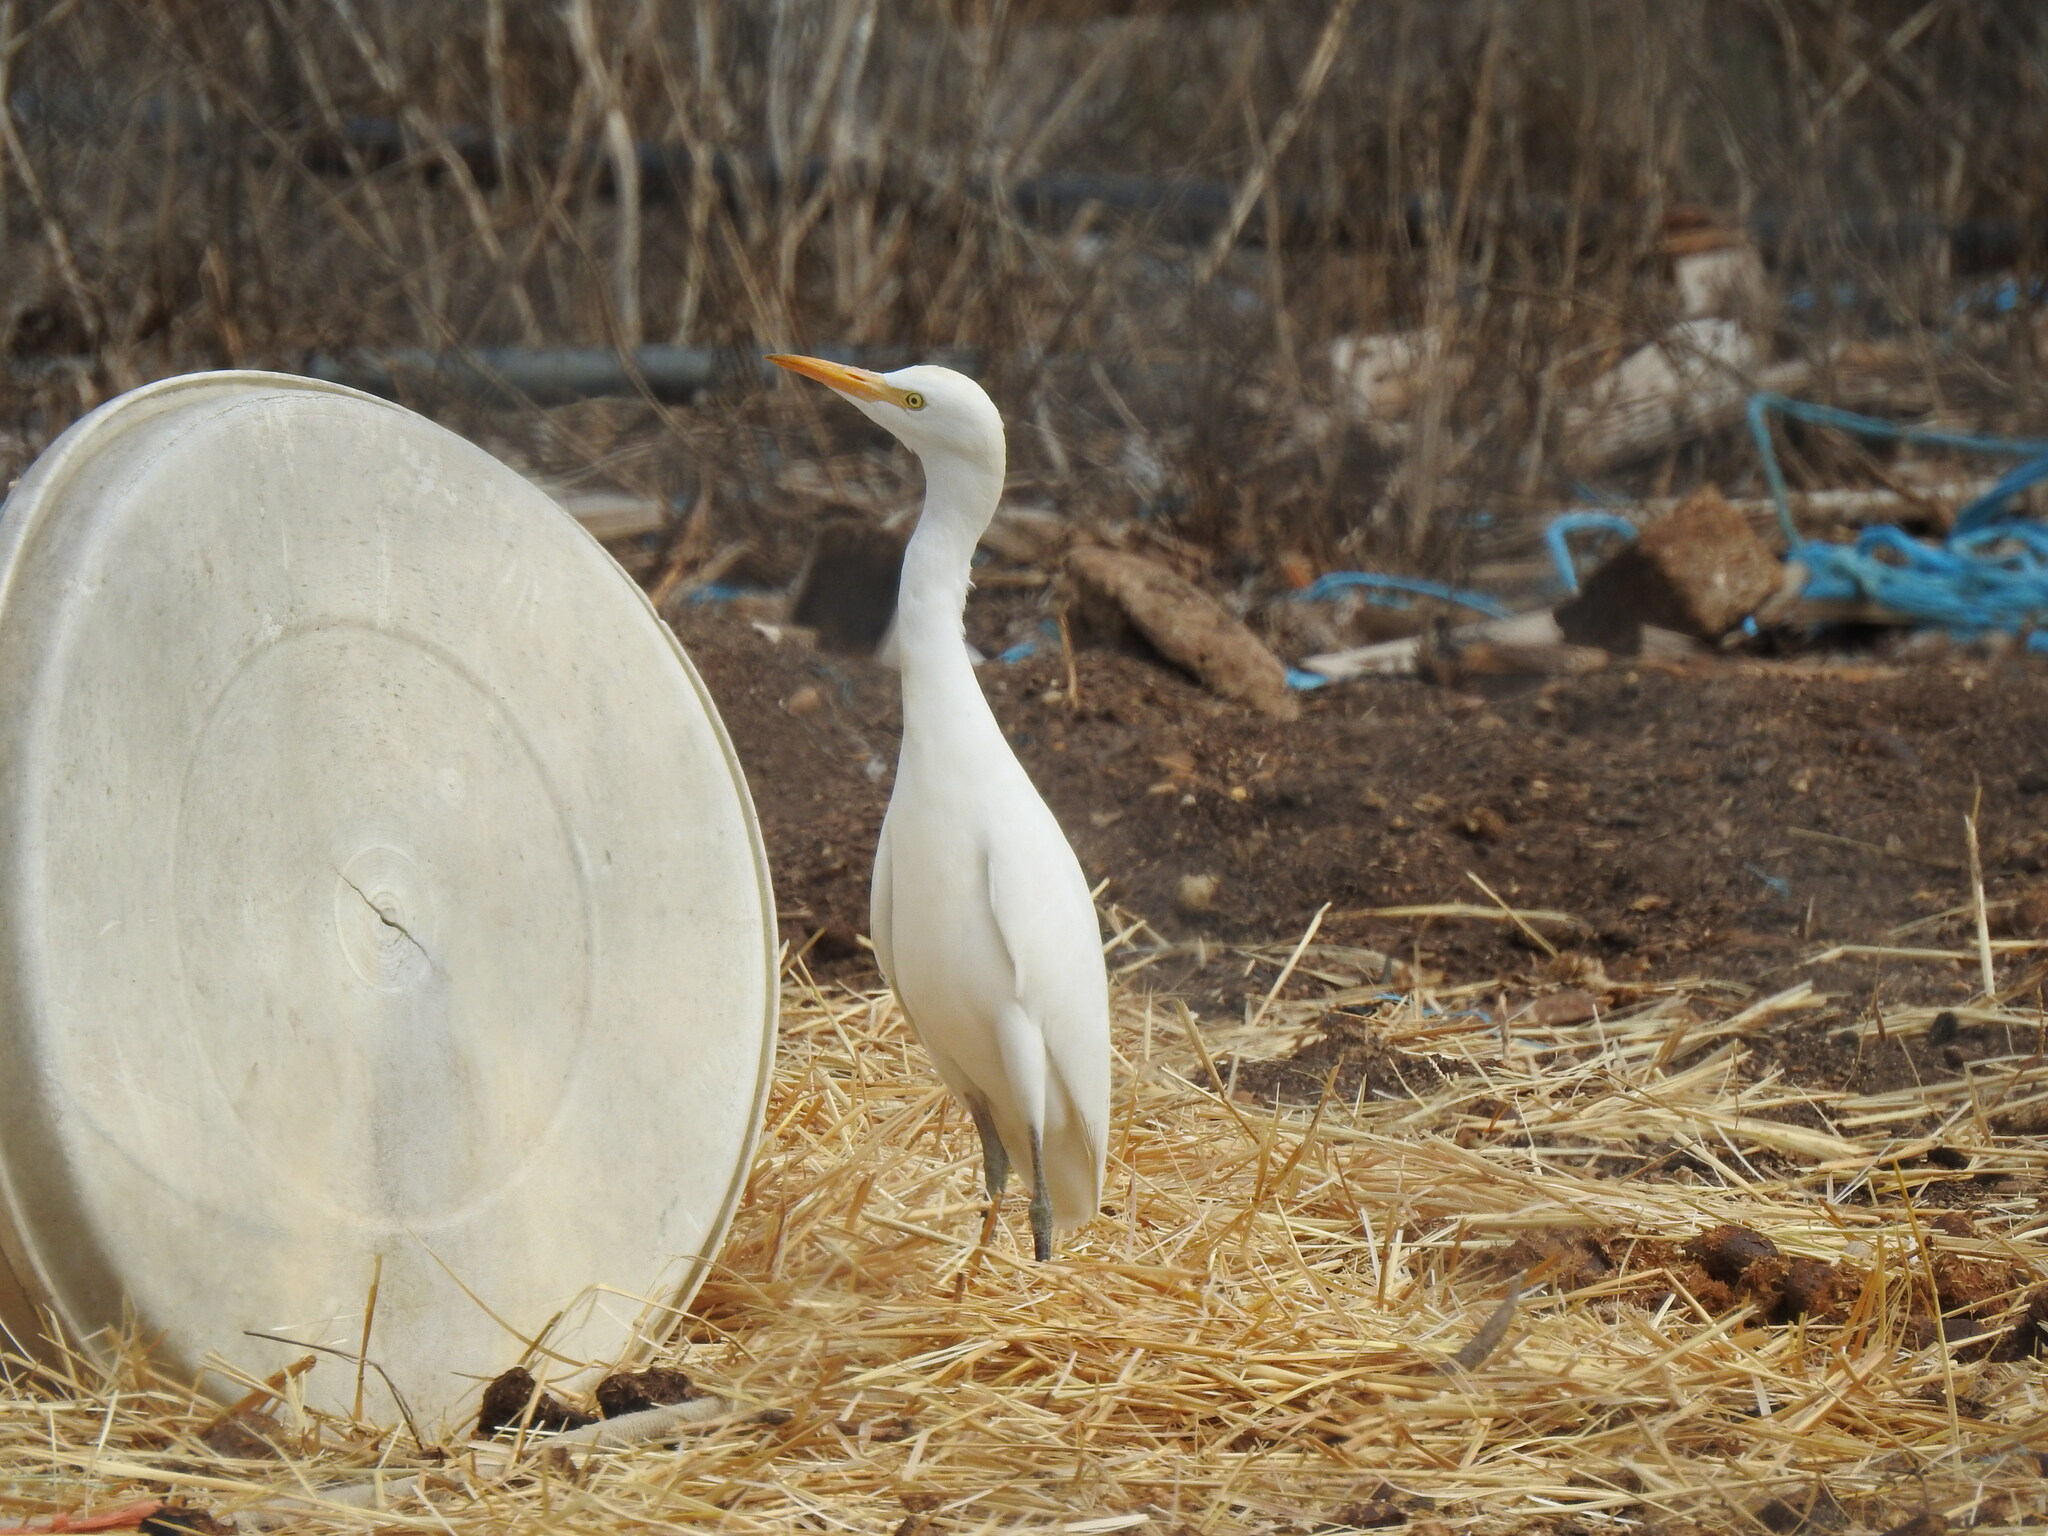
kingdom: Animalia
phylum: Chordata
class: Aves
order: Pelecaniformes
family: Ardeidae
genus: Bubulcus
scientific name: Bubulcus ibis
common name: Cattle egret
